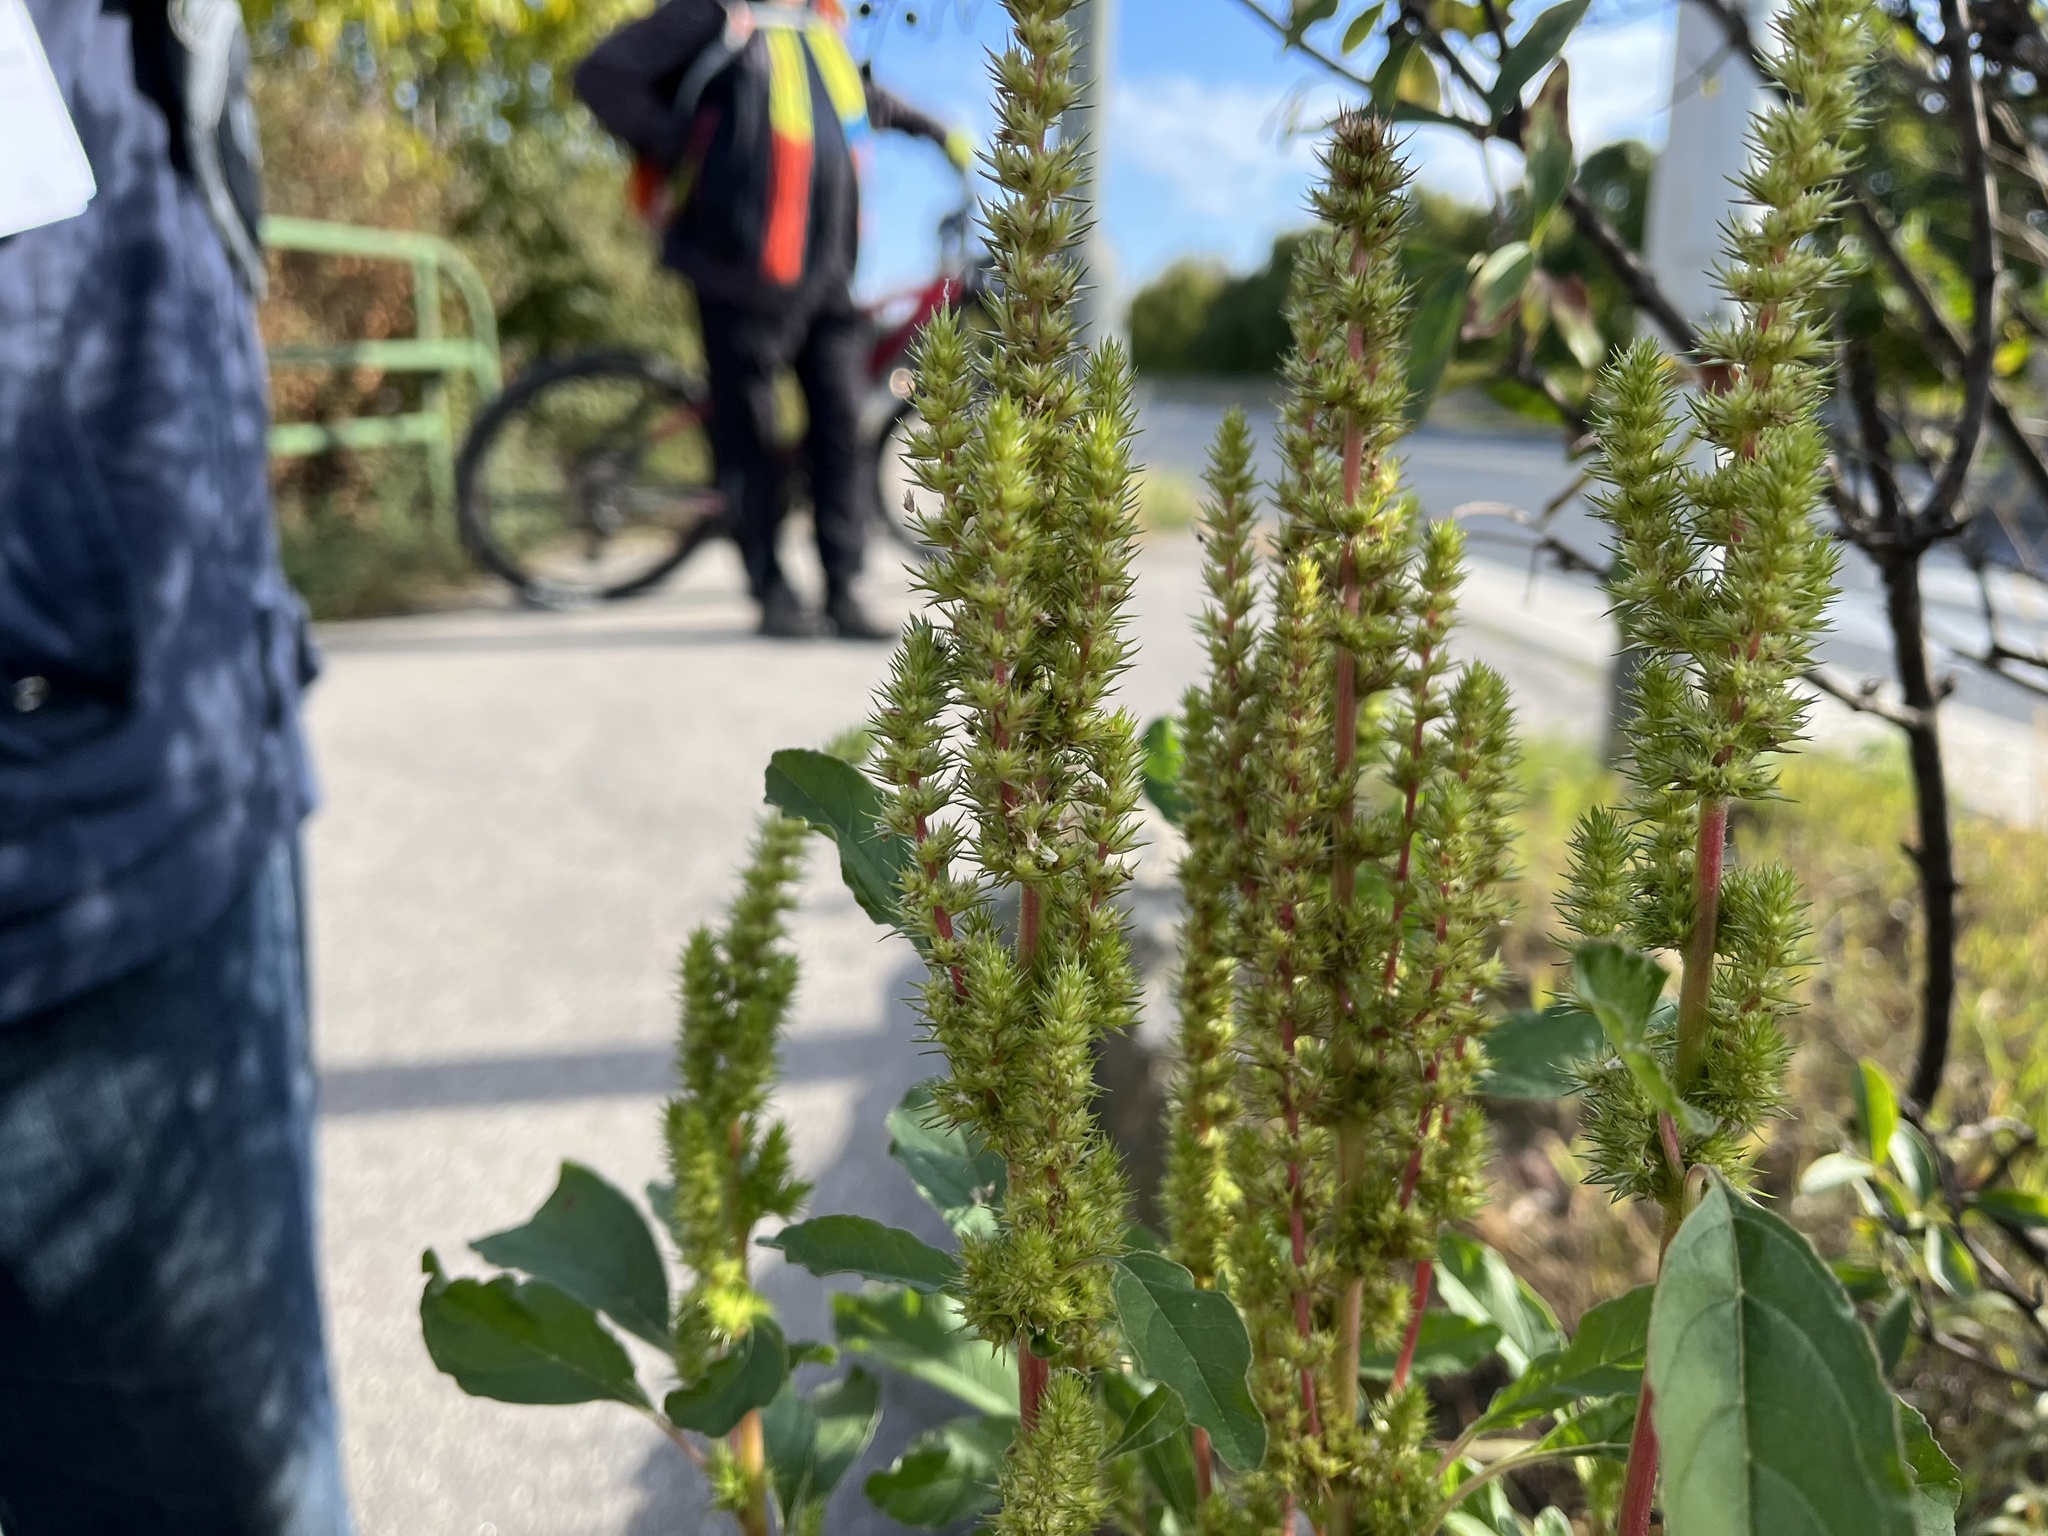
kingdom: Plantae
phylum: Tracheophyta
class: Magnoliopsida
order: Caryophyllales
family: Amaranthaceae
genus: Amaranthus
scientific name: Amaranthus powellii
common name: Powell's amaranth
